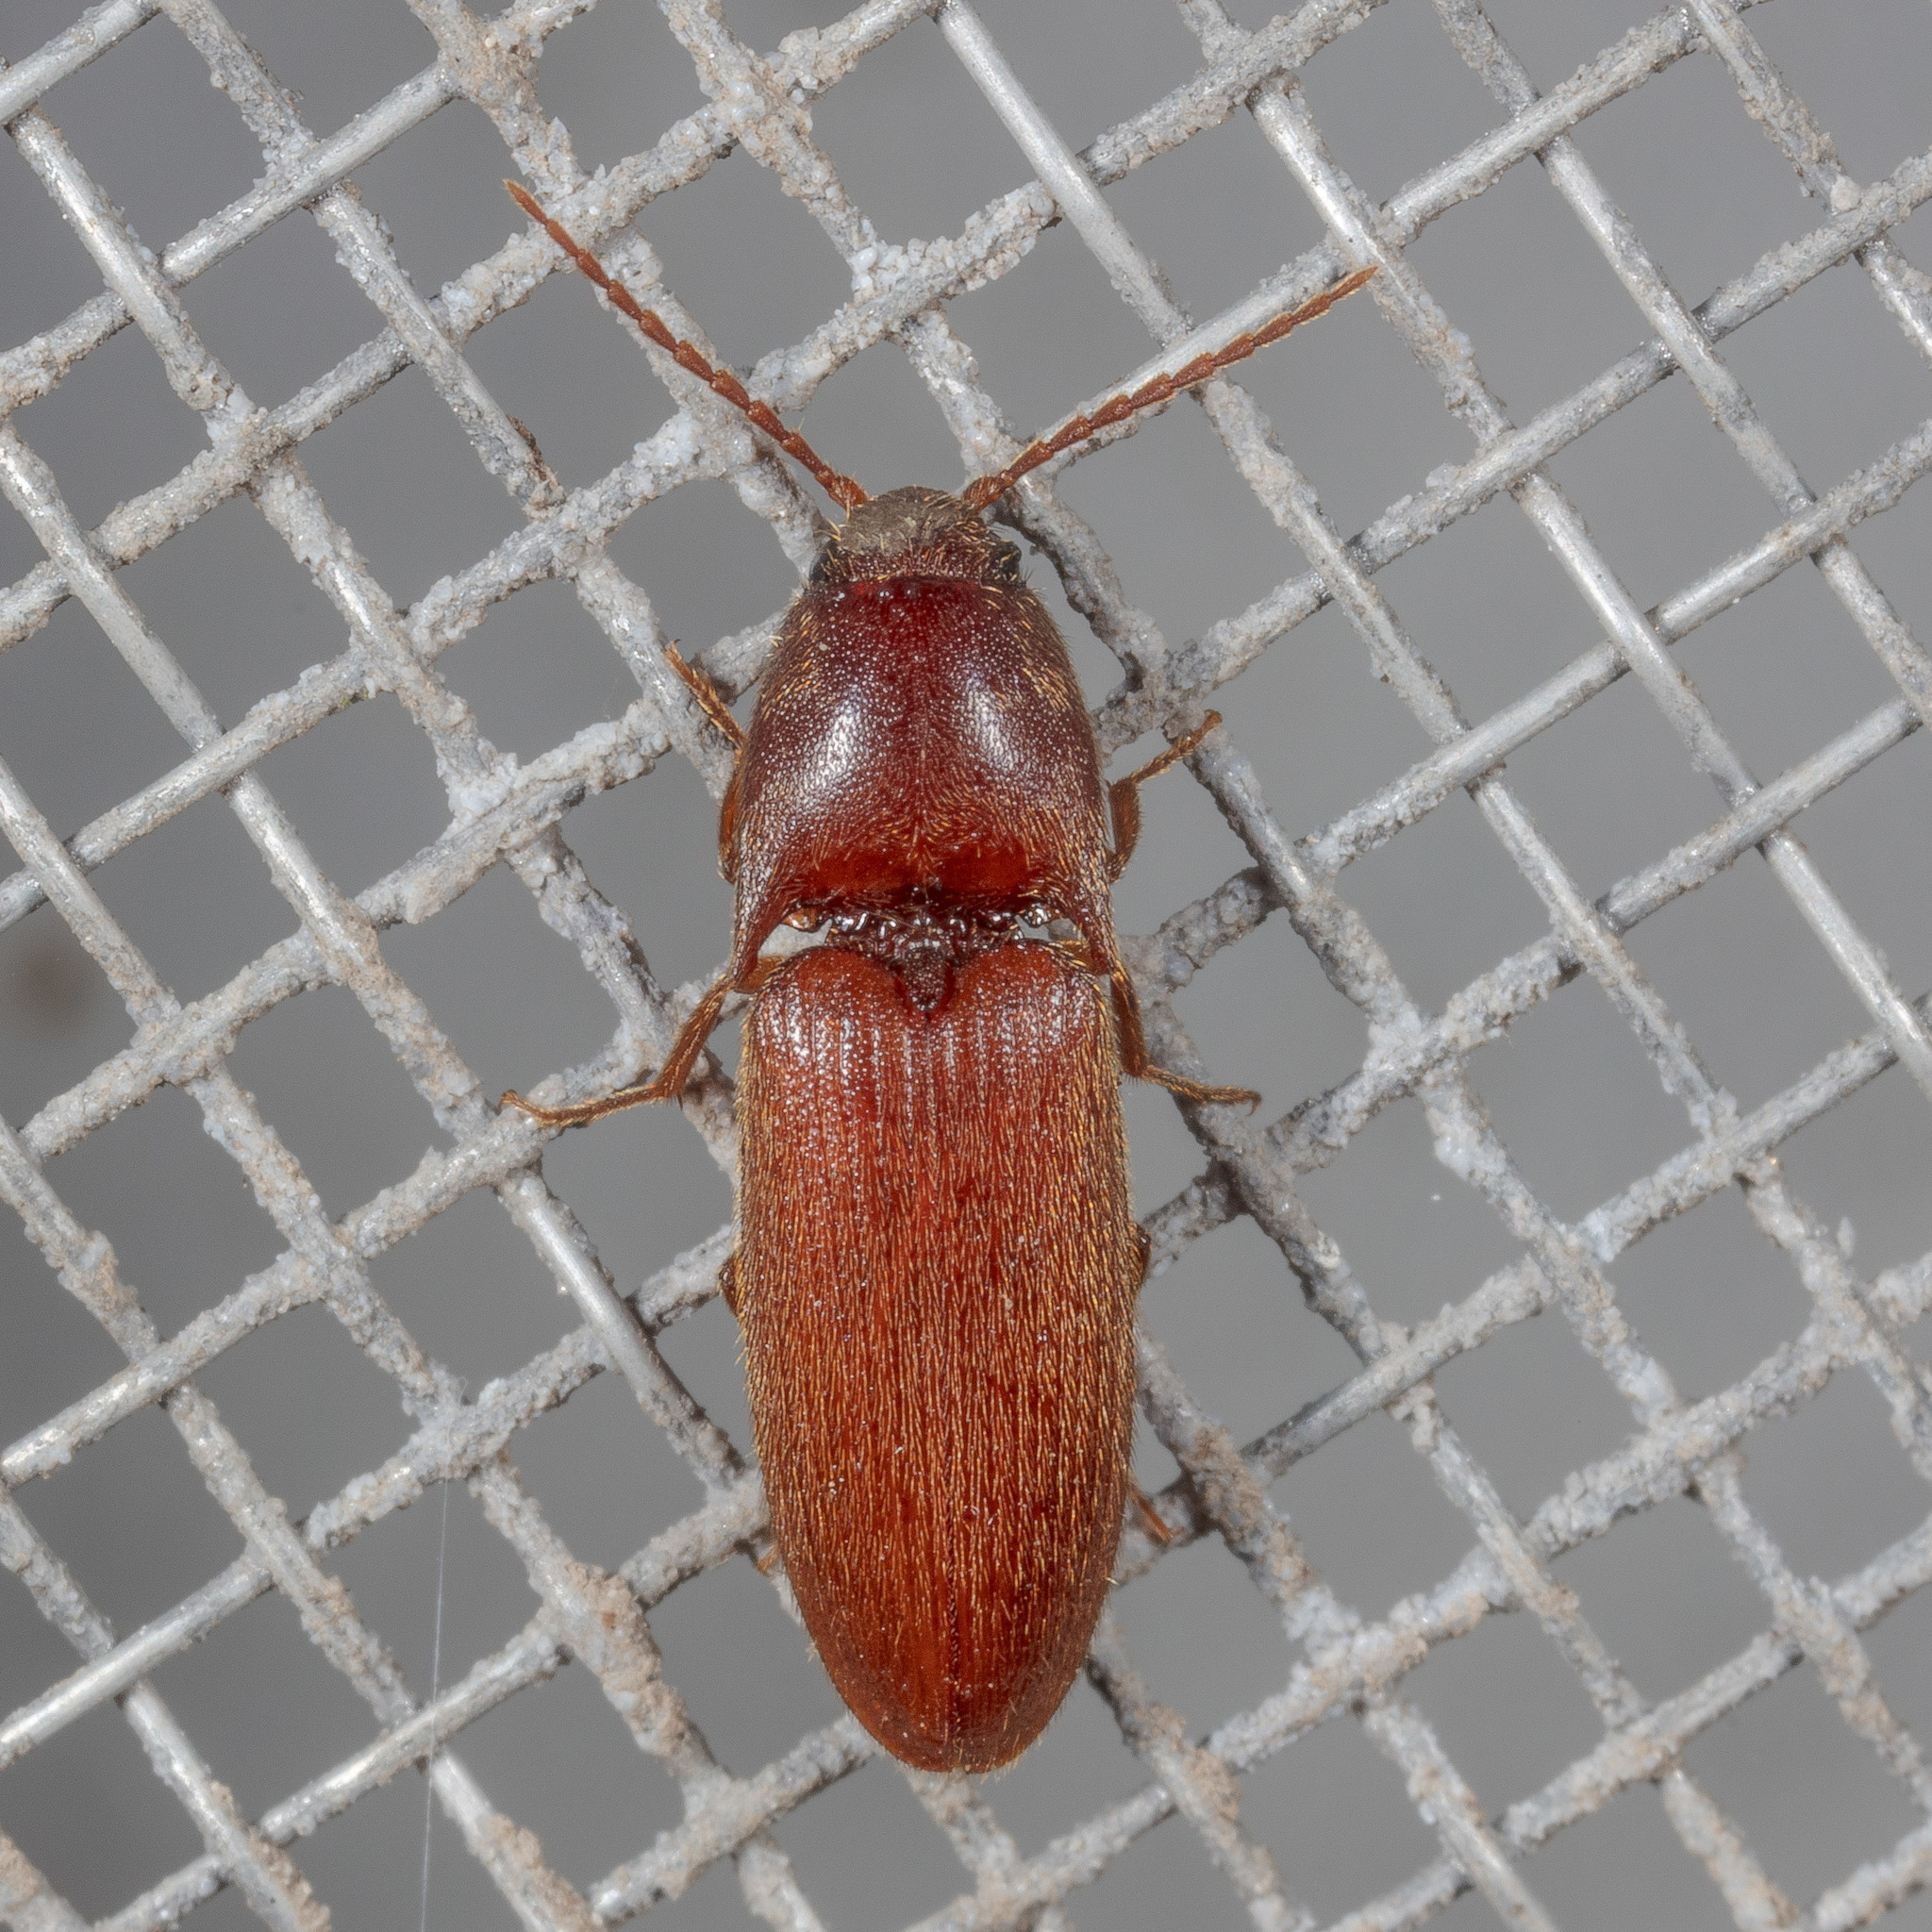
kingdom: Animalia
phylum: Arthropoda
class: Insecta
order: Coleoptera
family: Elateridae
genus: Anchastus
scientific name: Anchastus
